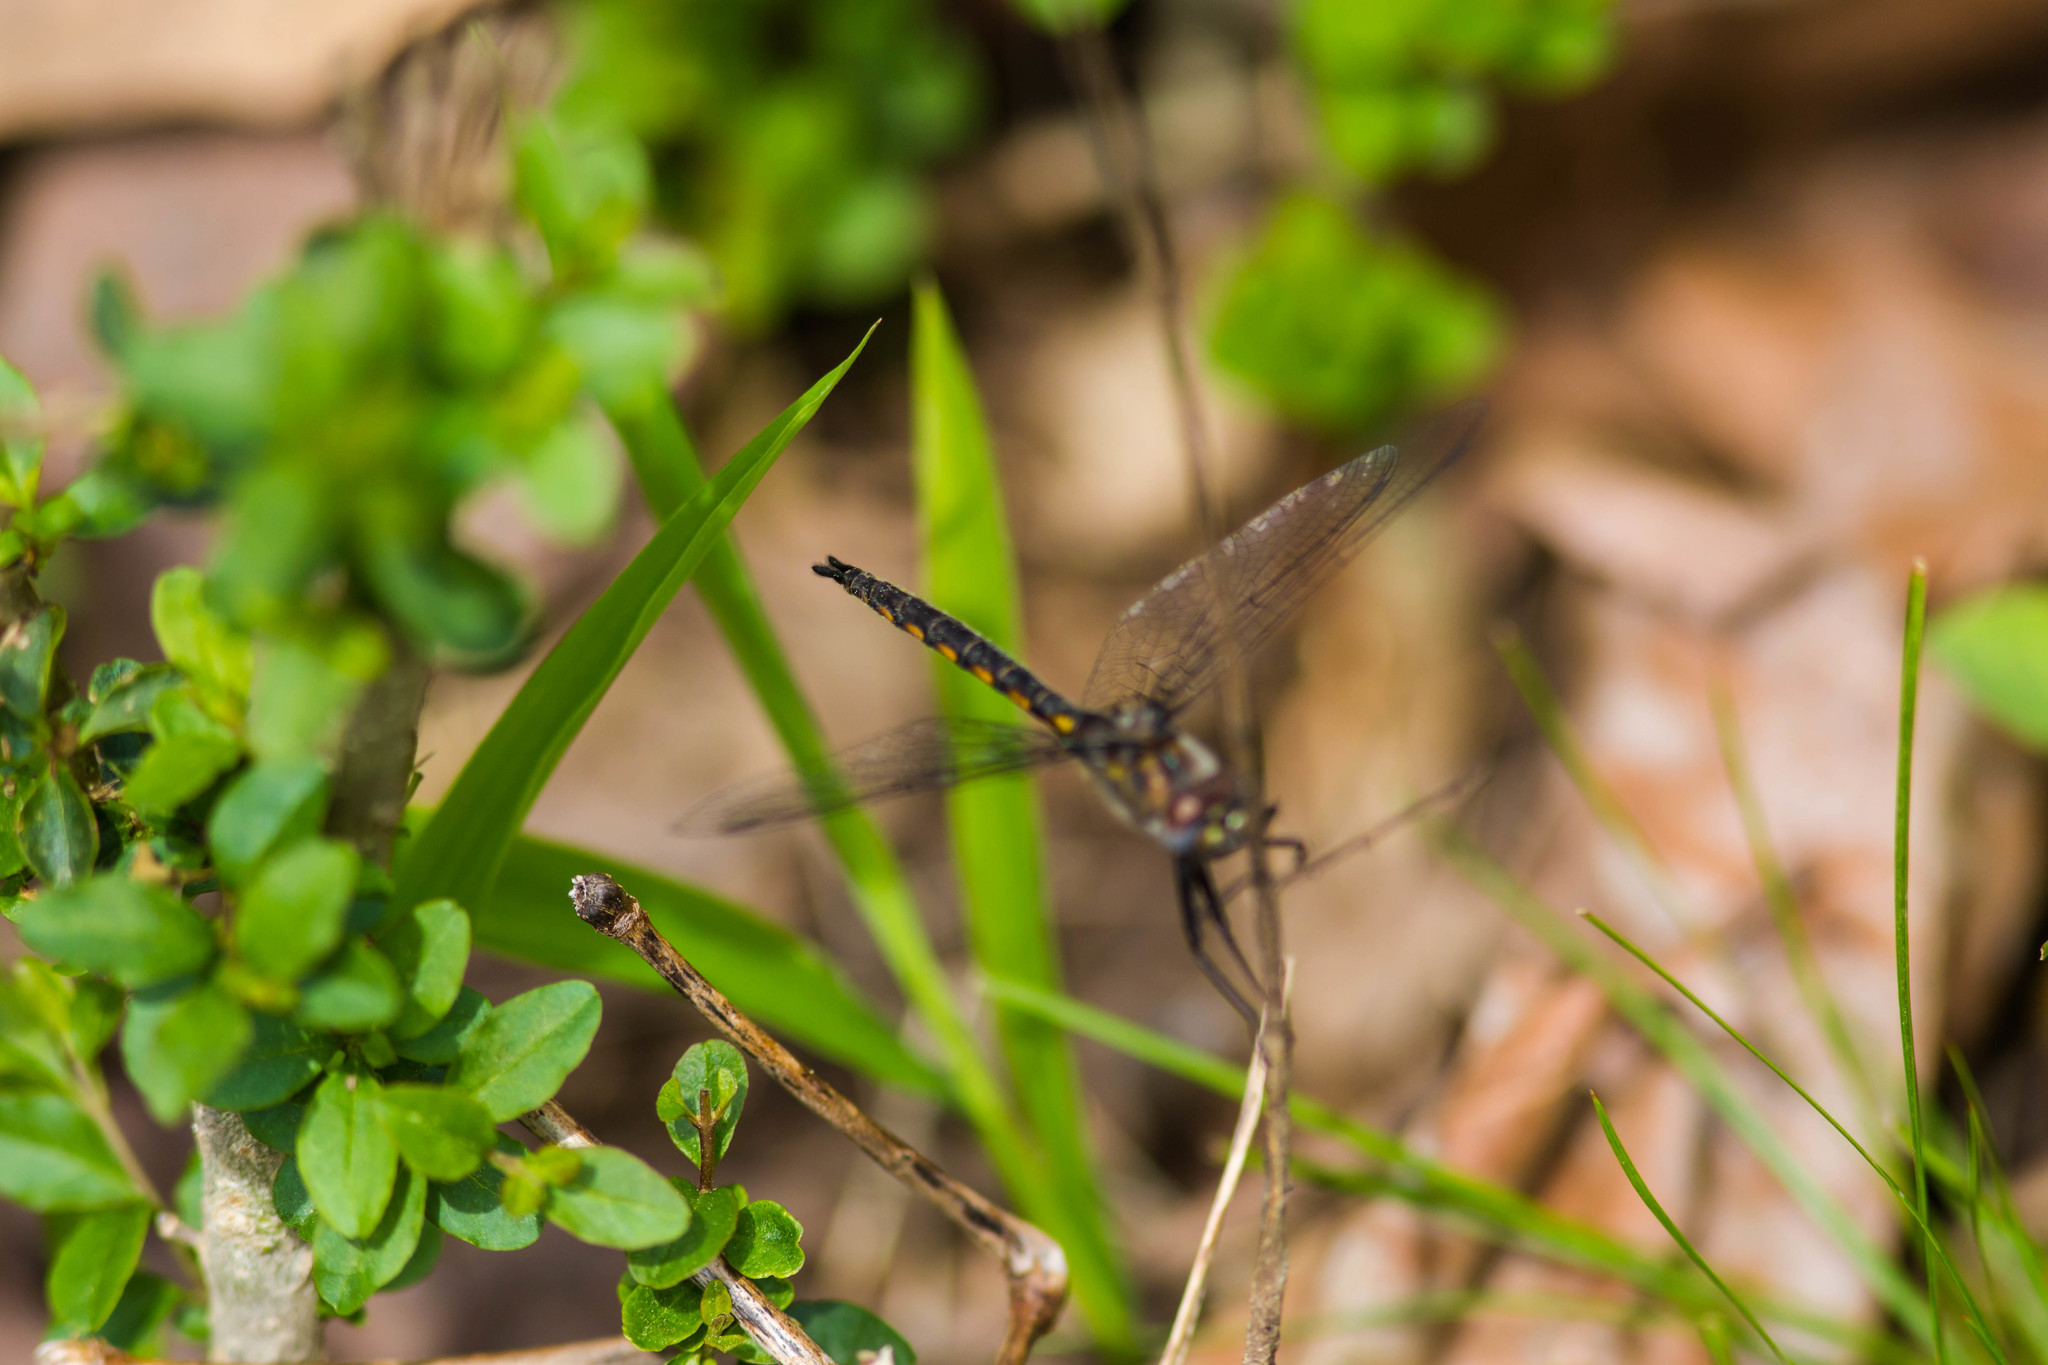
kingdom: Animalia
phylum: Arthropoda
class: Insecta
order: Odonata
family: Corduliidae
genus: Epitheca
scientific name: Epitheca cynosura
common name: Common baskettail
